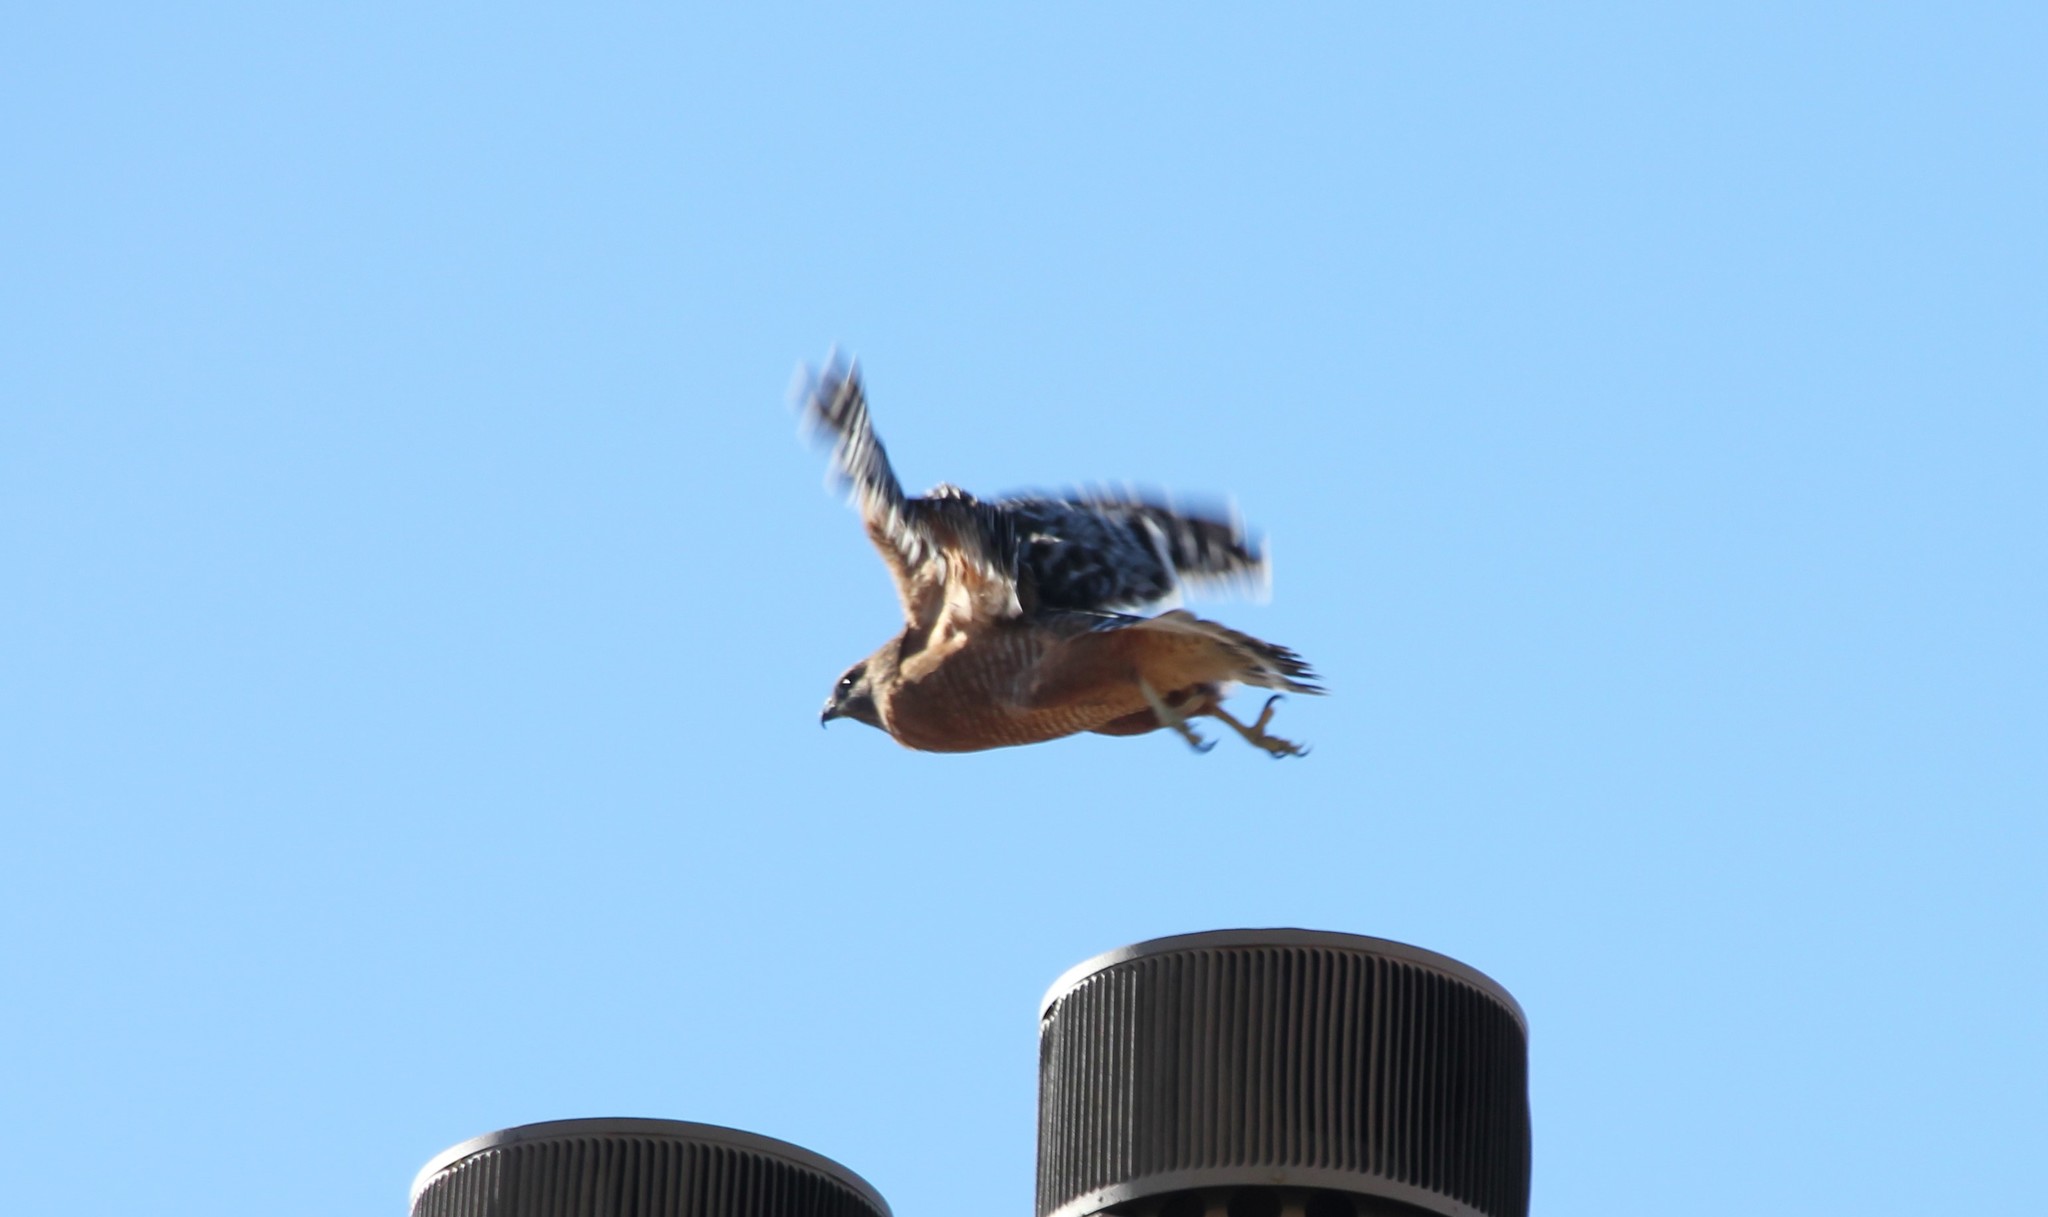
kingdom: Animalia
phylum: Chordata
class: Aves
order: Accipitriformes
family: Accipitridae
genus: Buteo
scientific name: Buteo lineatus
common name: Red-shouldered hawk
